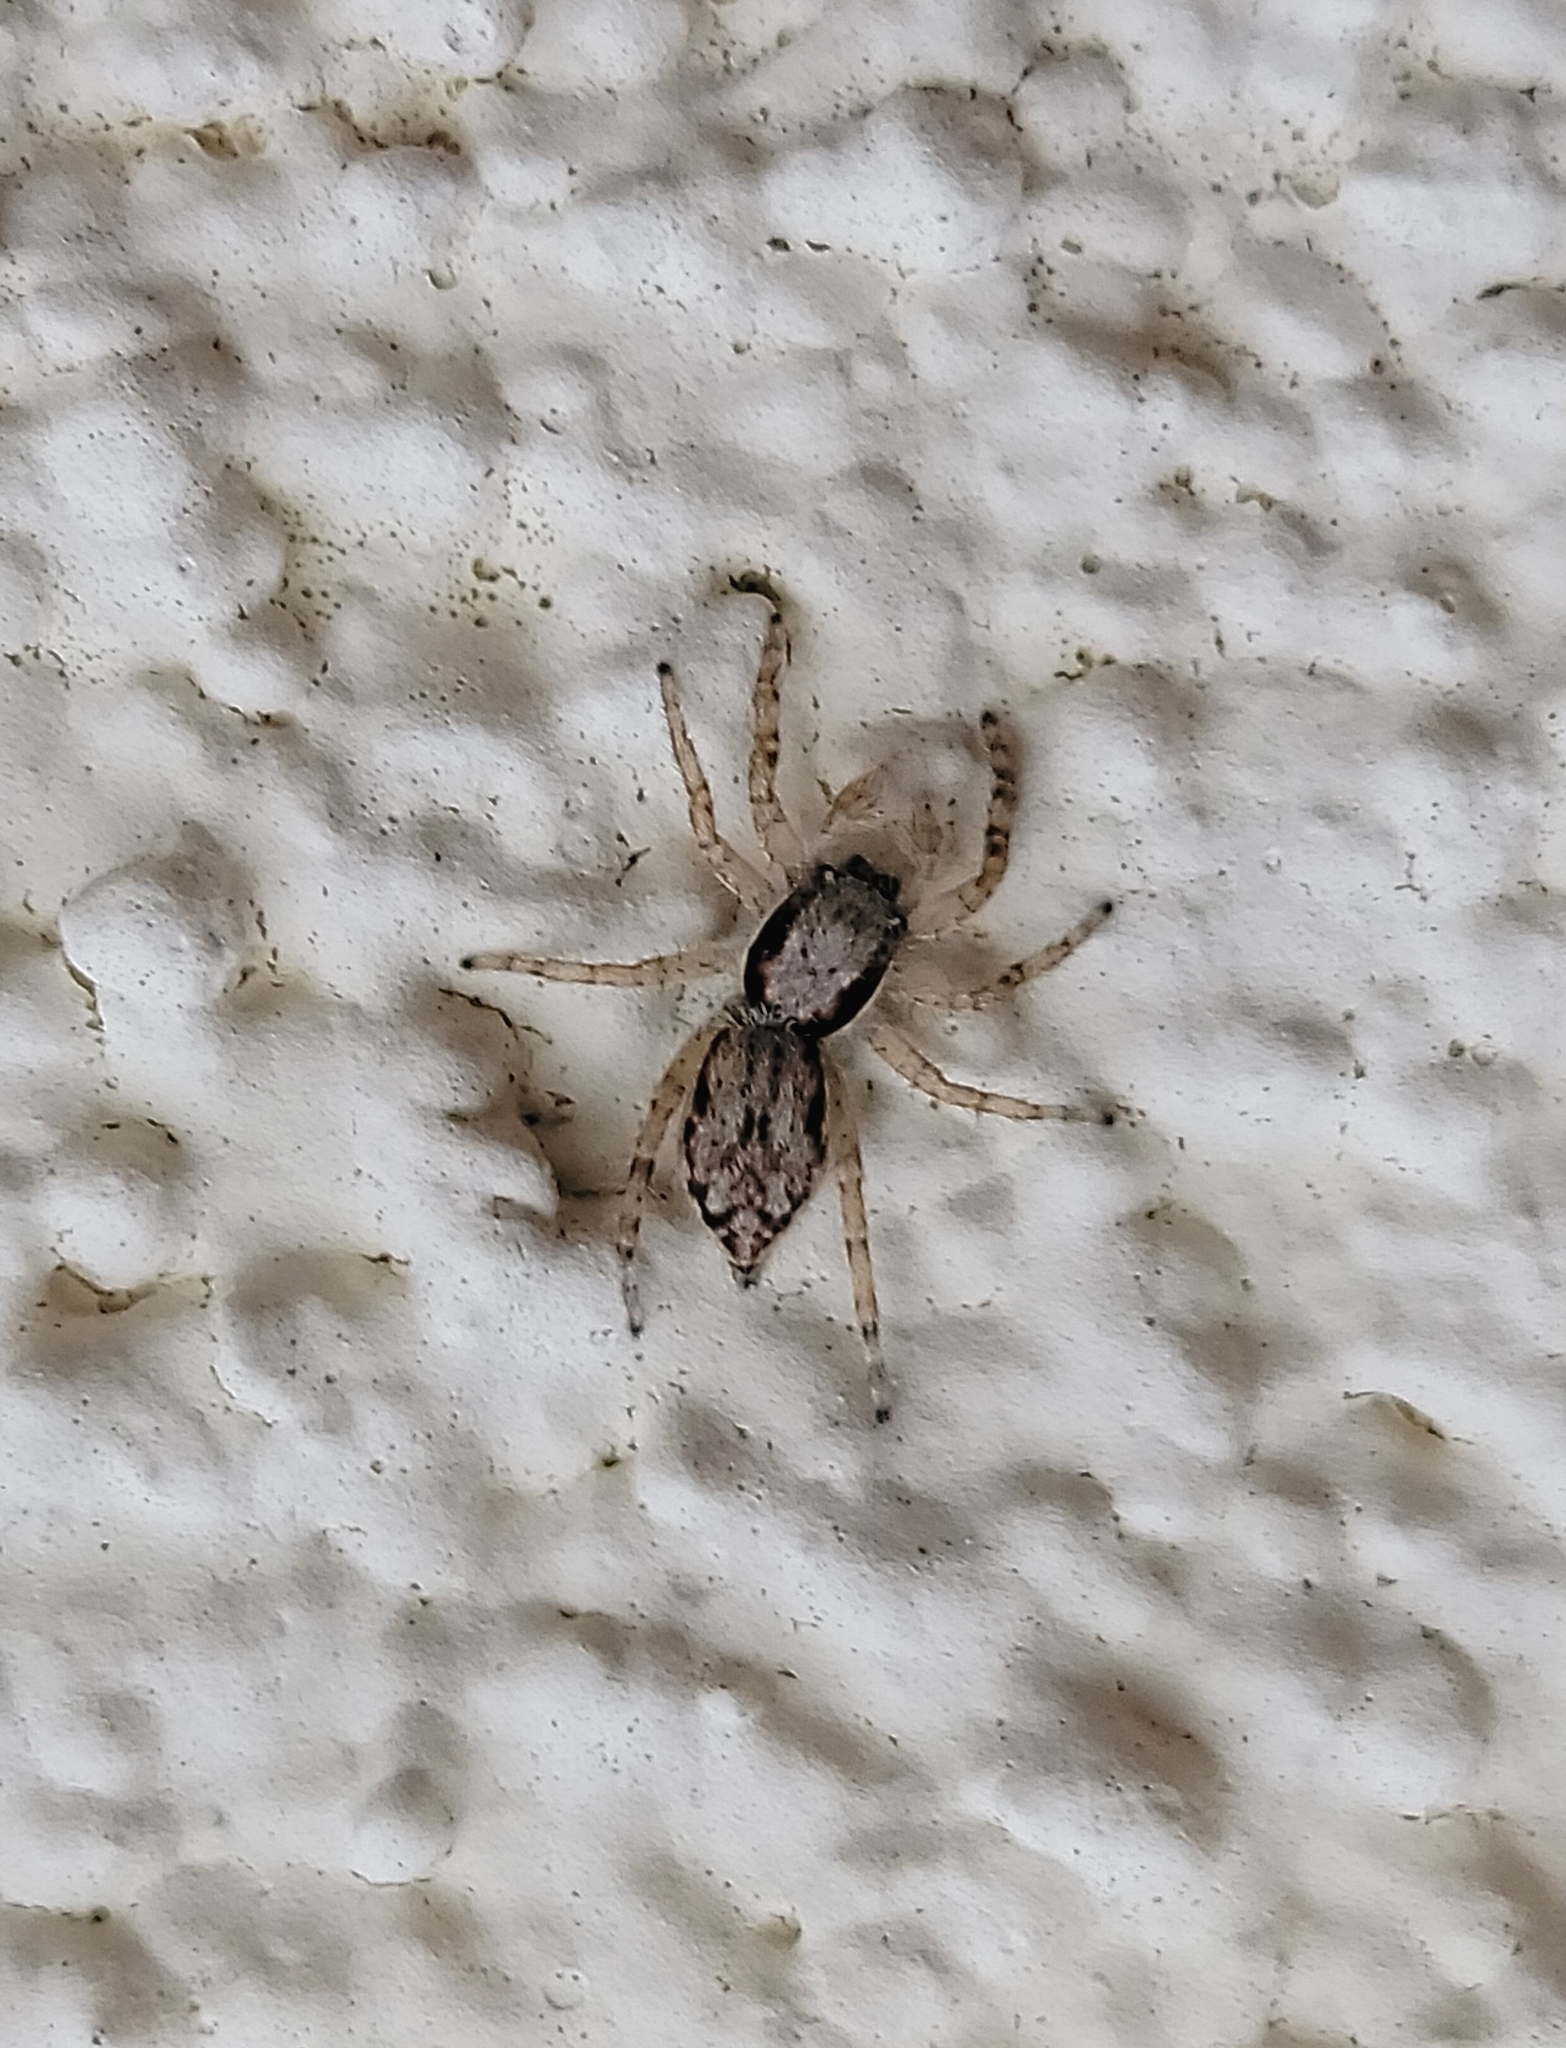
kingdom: Animalia
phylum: Arthropoda
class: Arachnida
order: Araneae
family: Salticidae
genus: Menemerus
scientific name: Menemerus bivittatus
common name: Gray wall jumper
